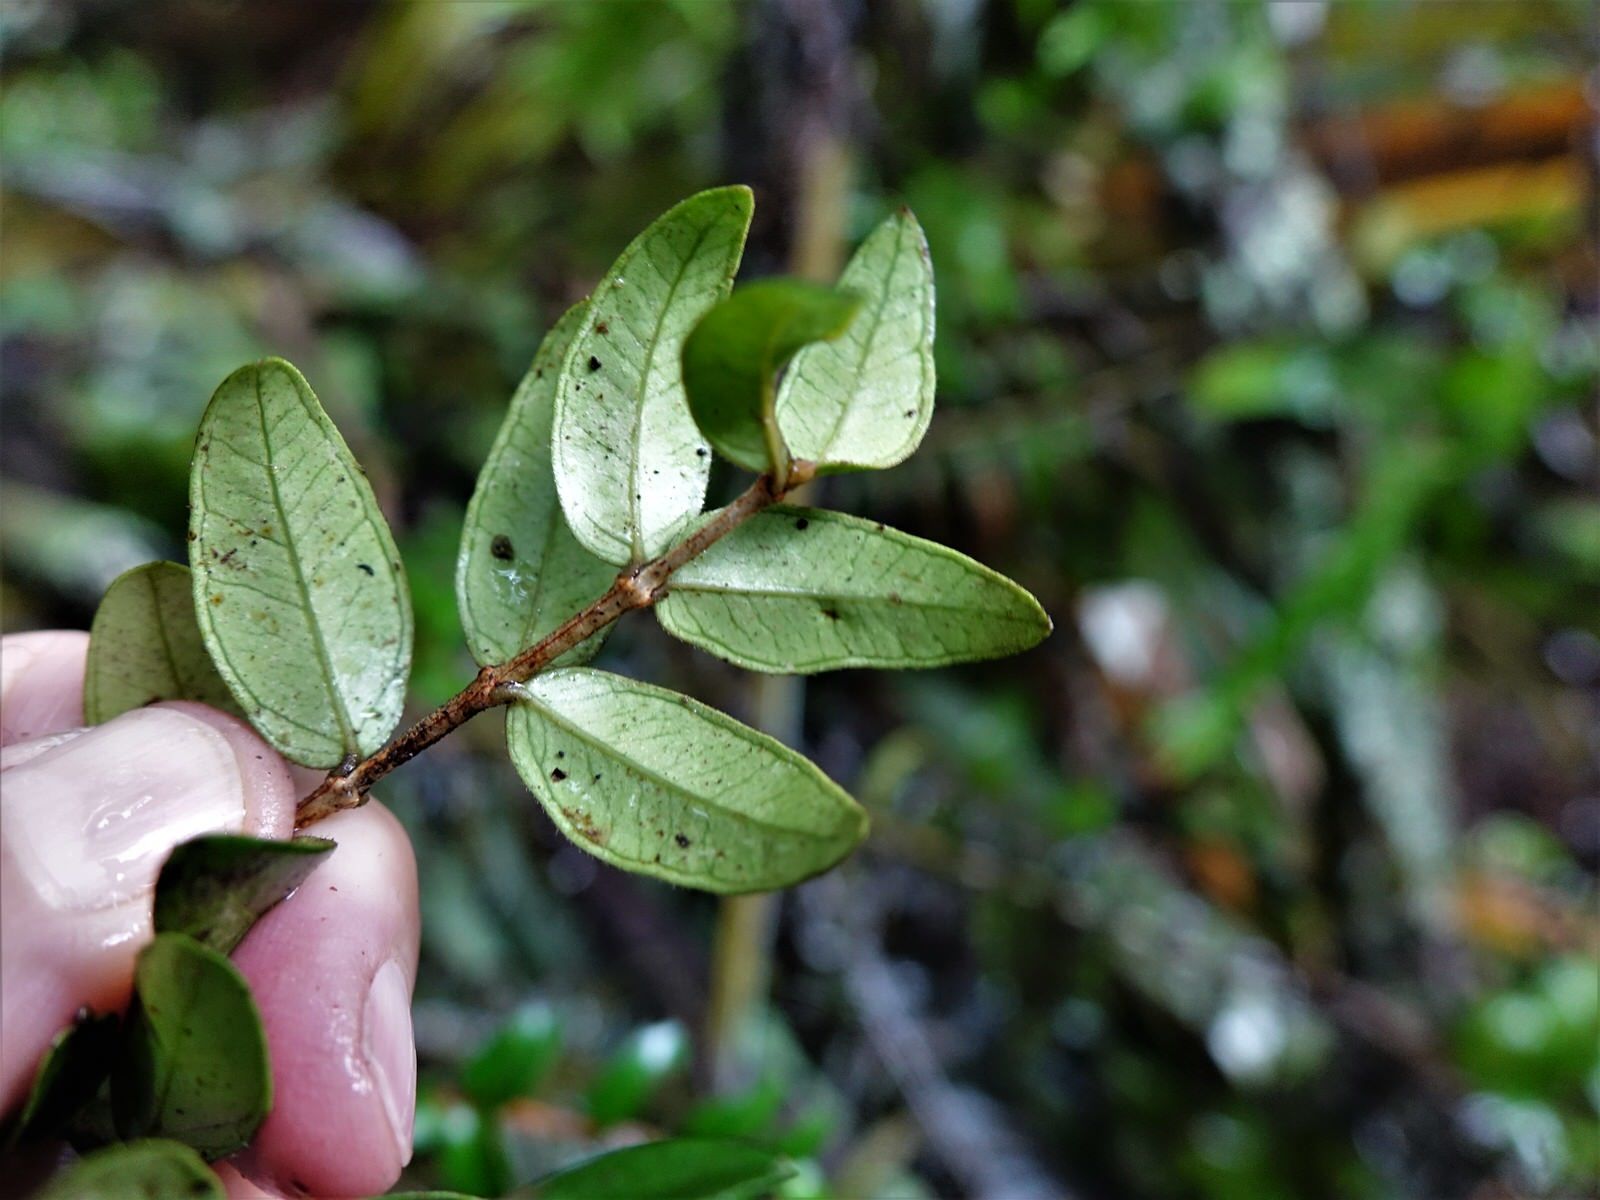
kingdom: Plantae
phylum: Tracheophyta
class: Magnoliopsida
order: Myrtales
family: Myrtaceae
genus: Metrosideros
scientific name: Metrosideros diffusa
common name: Small ratavine
